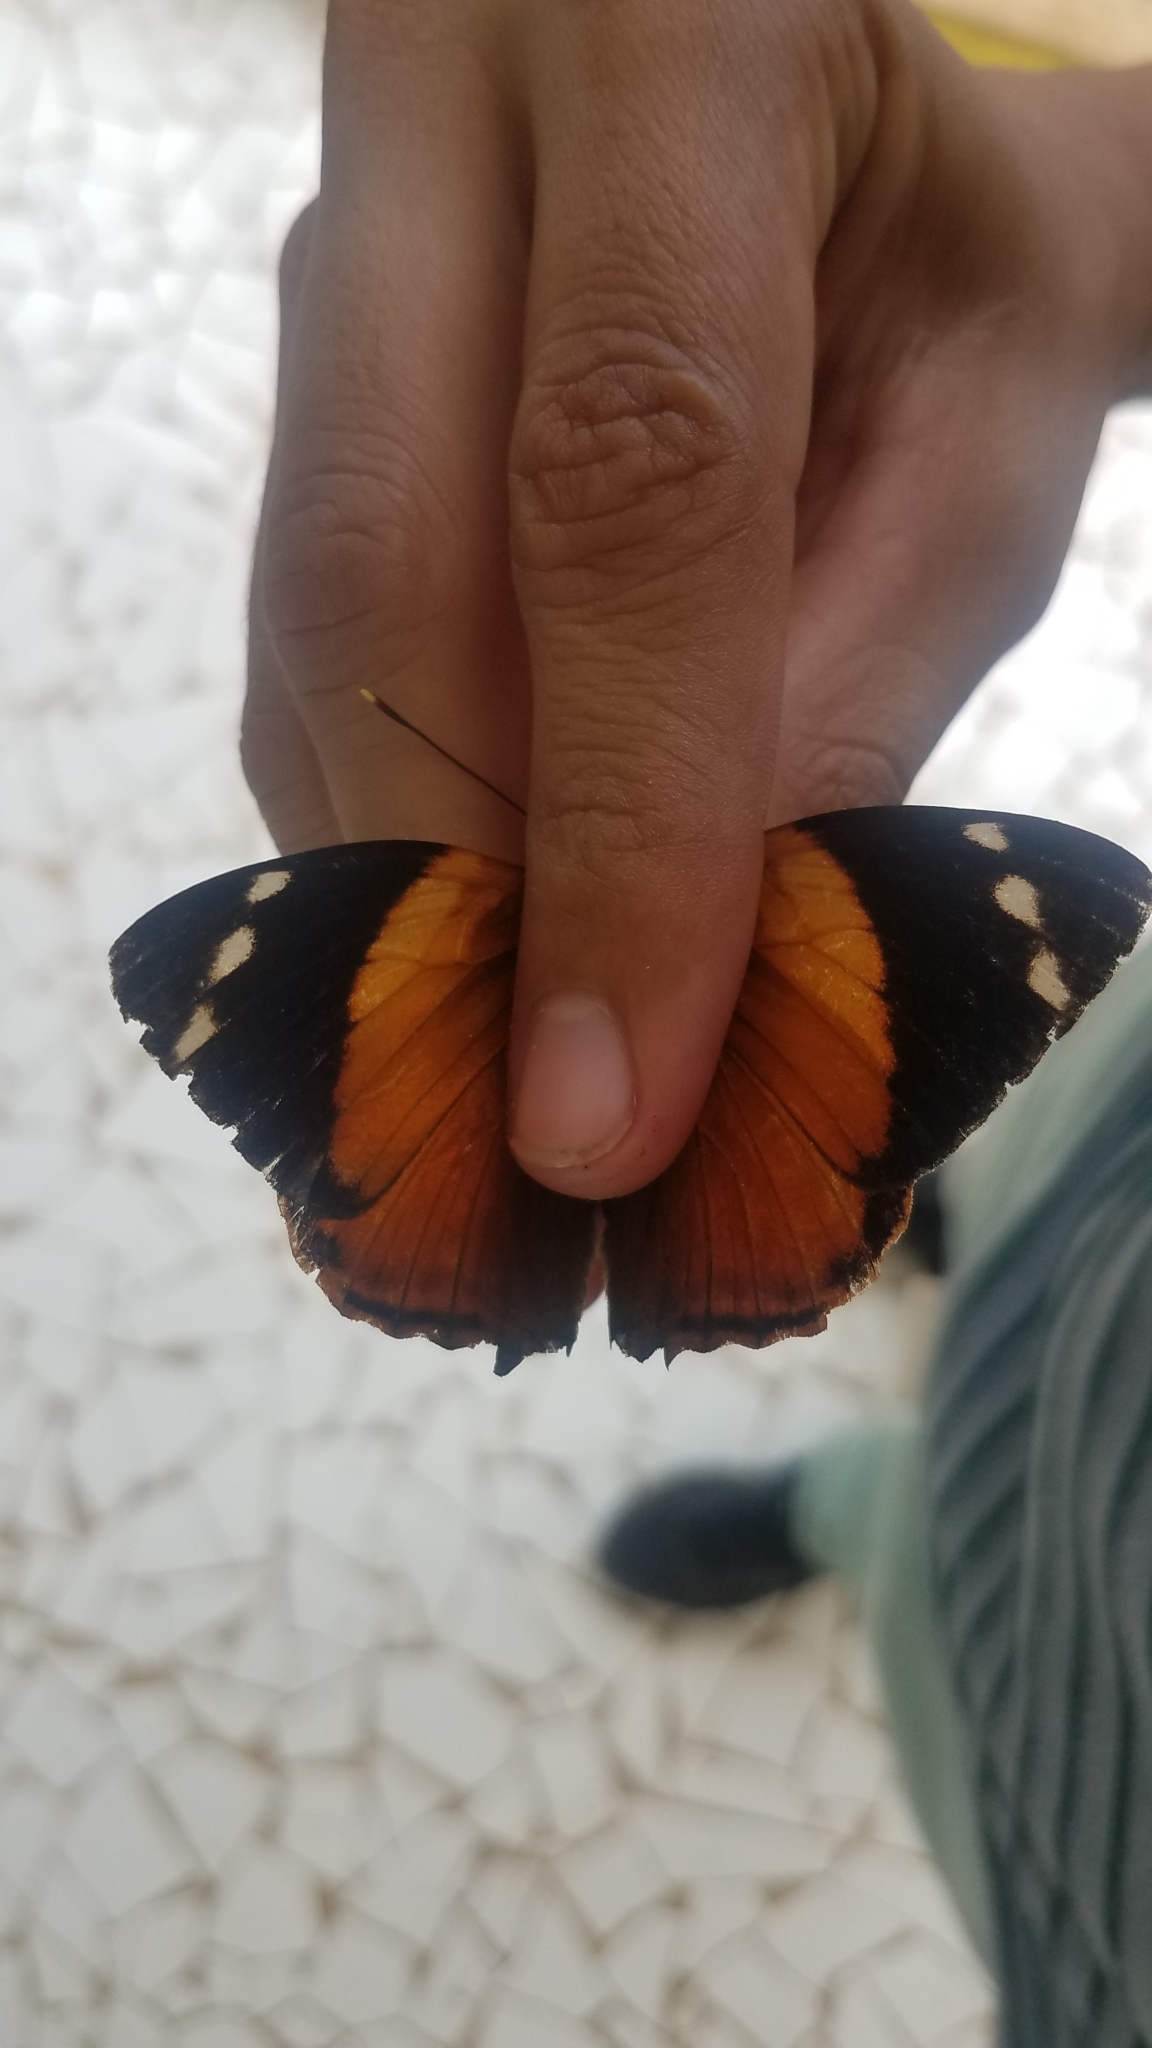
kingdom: Animalia
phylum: Arthropoda
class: Insecta
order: Lepidoptera
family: Nymphalidae
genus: Smyrna
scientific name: Smyrna blomfildia
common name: Blomfild's beauty
